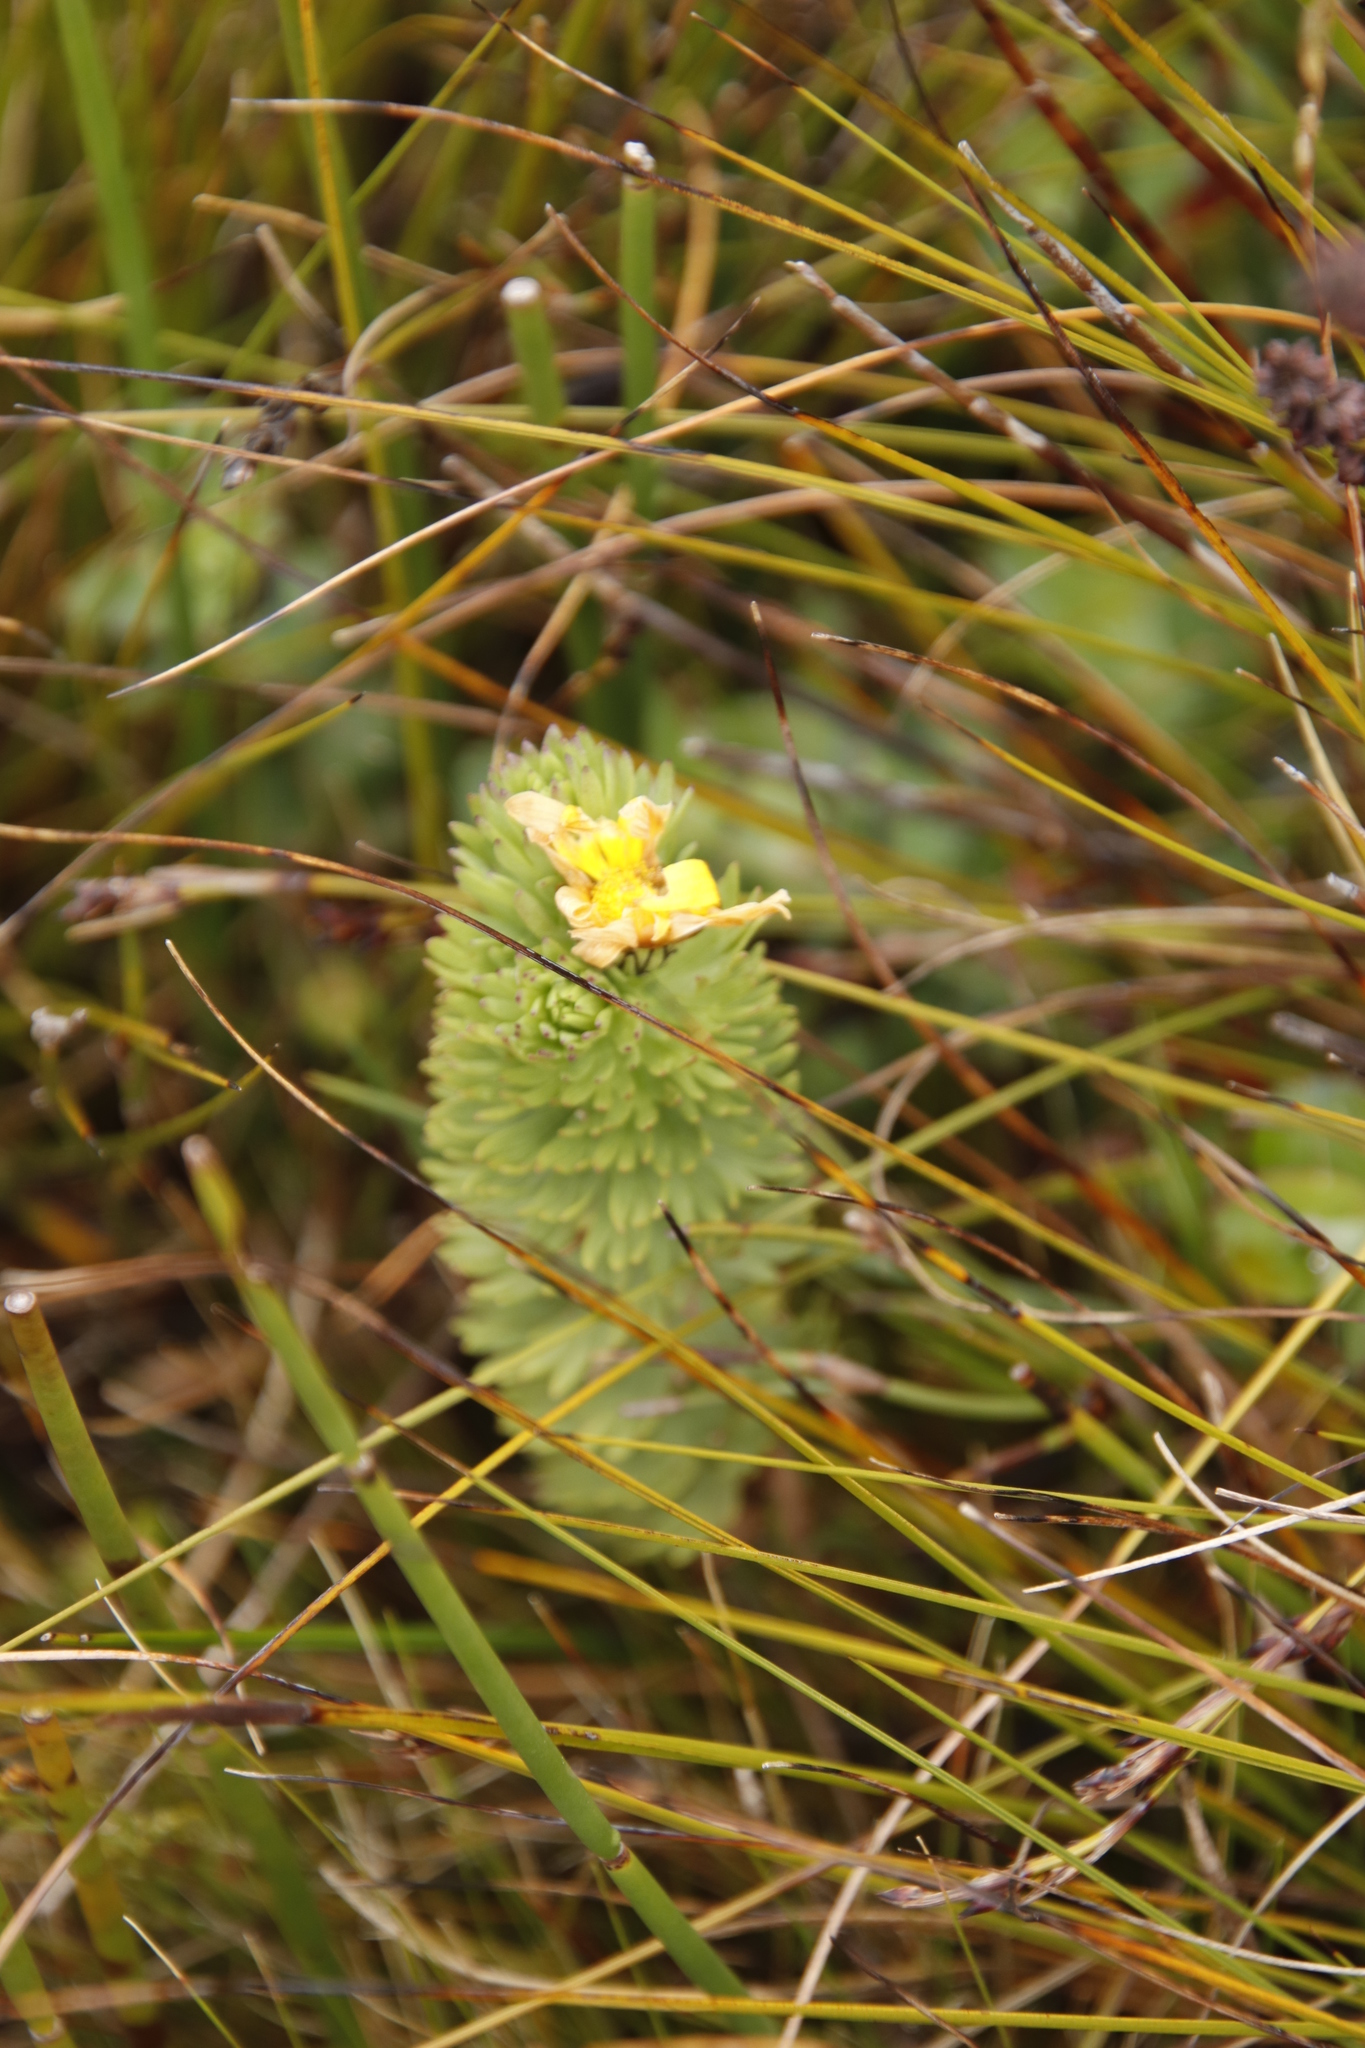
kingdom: Plantae
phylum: Tracheophyta
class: Magnoliopsida
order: Asterales
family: Asteraceae
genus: Ursinia
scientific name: Ursinia caledonica
